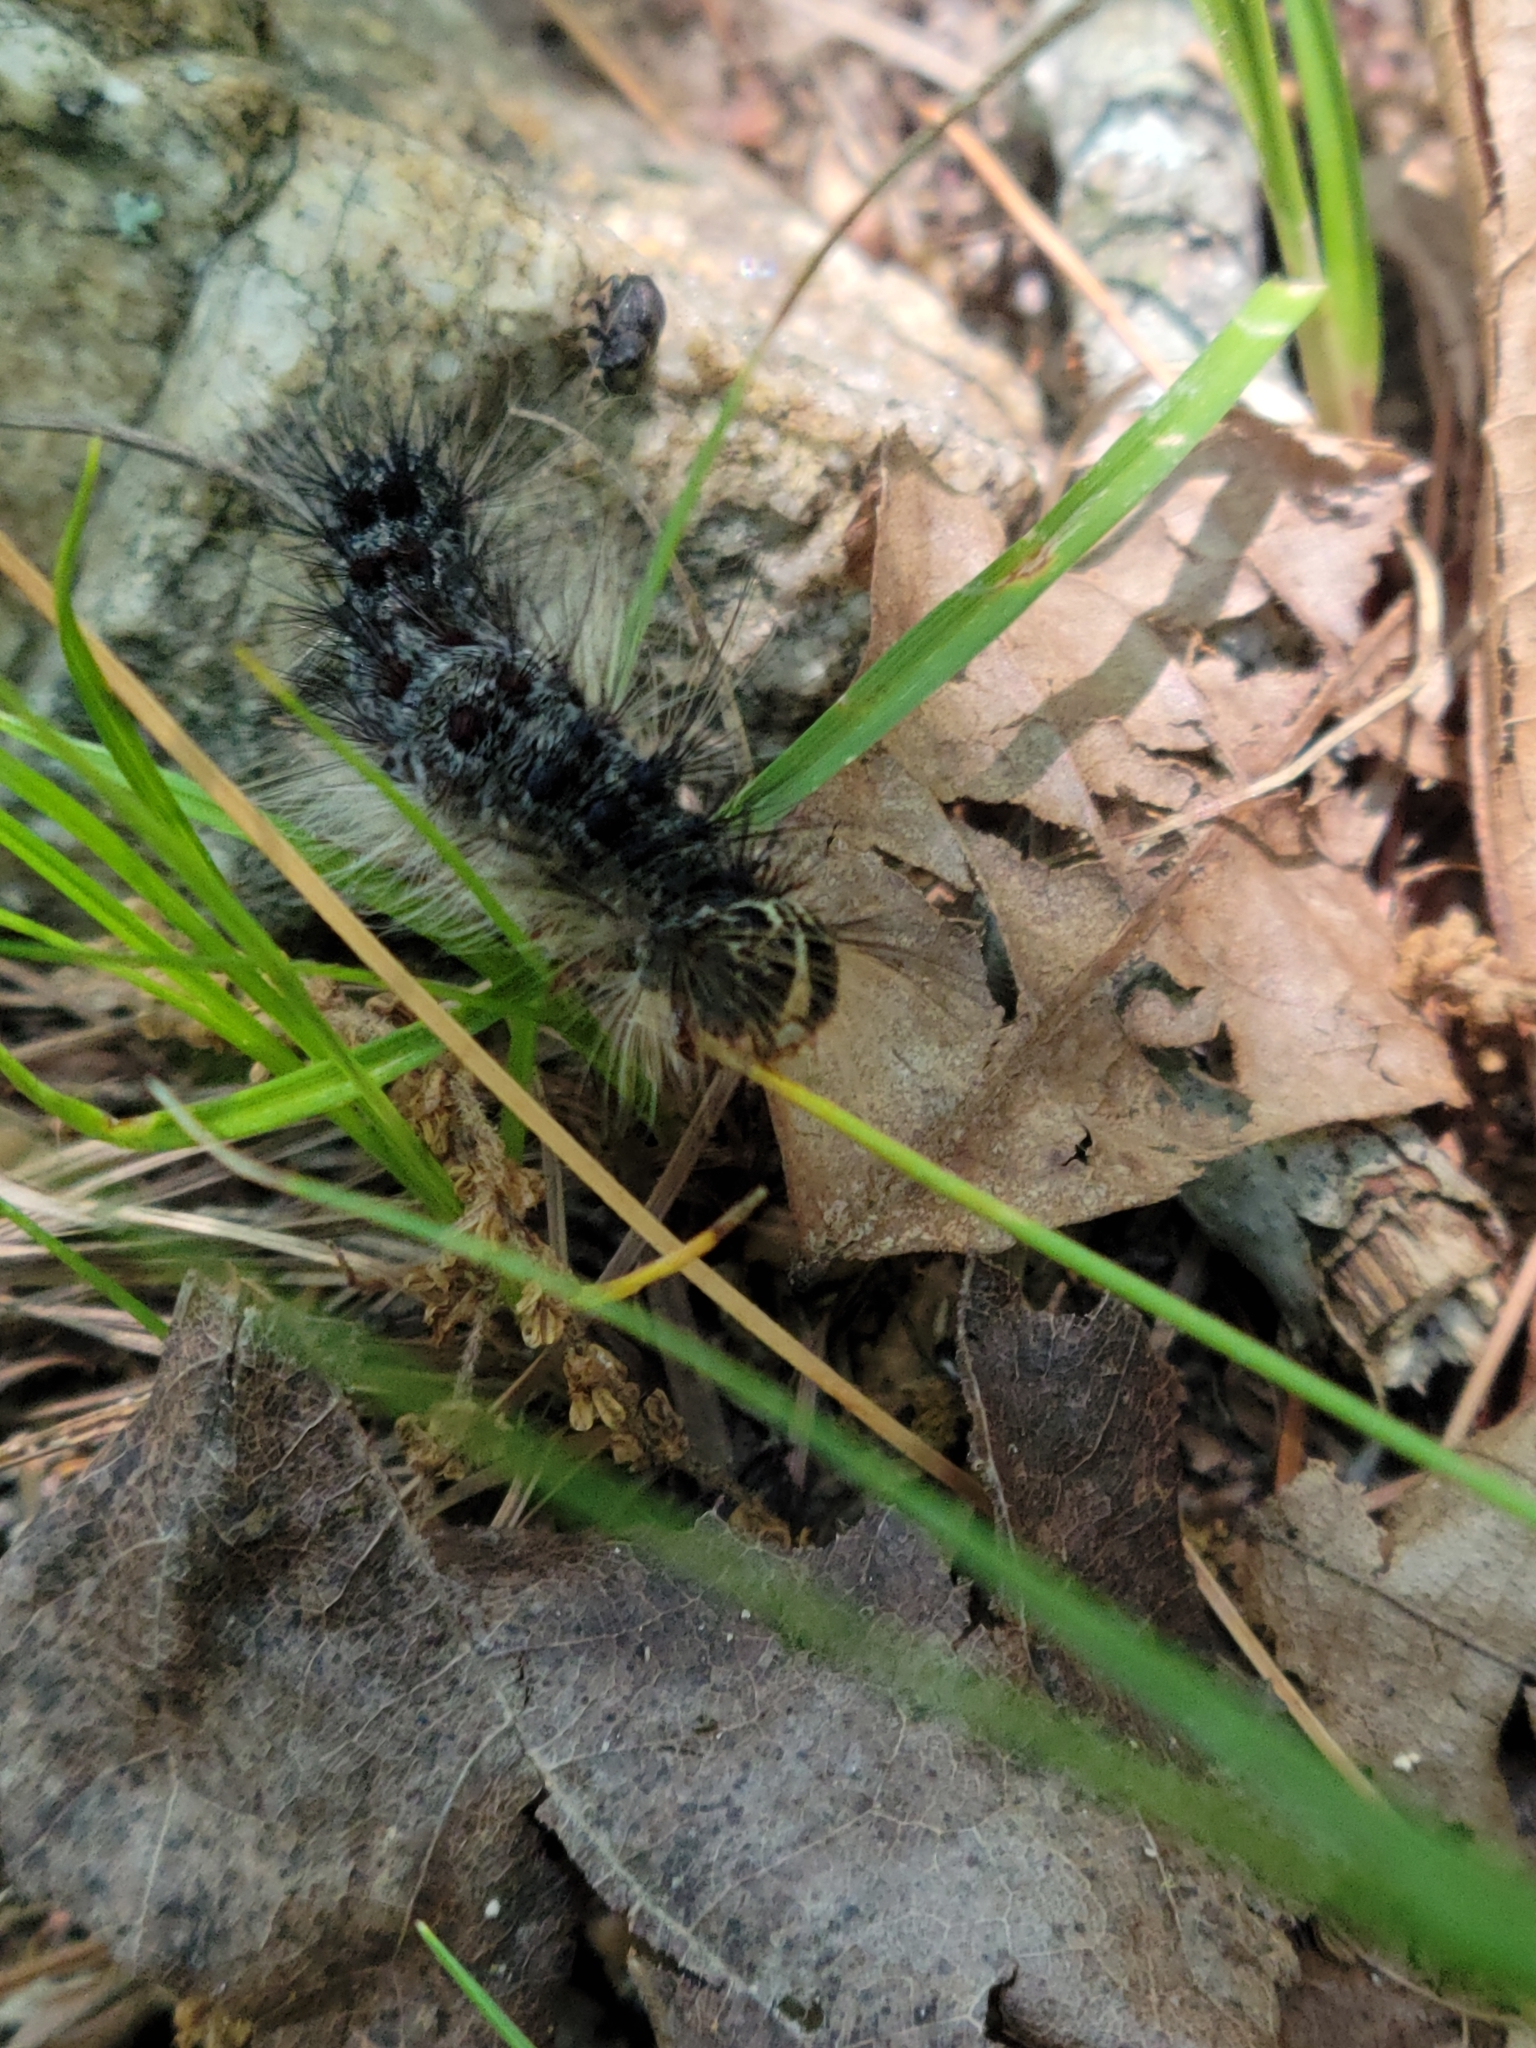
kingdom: Animalia
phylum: Arthropoda
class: Insecta
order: Lepidoptera
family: Erebidae
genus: Lymantria
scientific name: Lymantria dispar
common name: Gypsy moth
